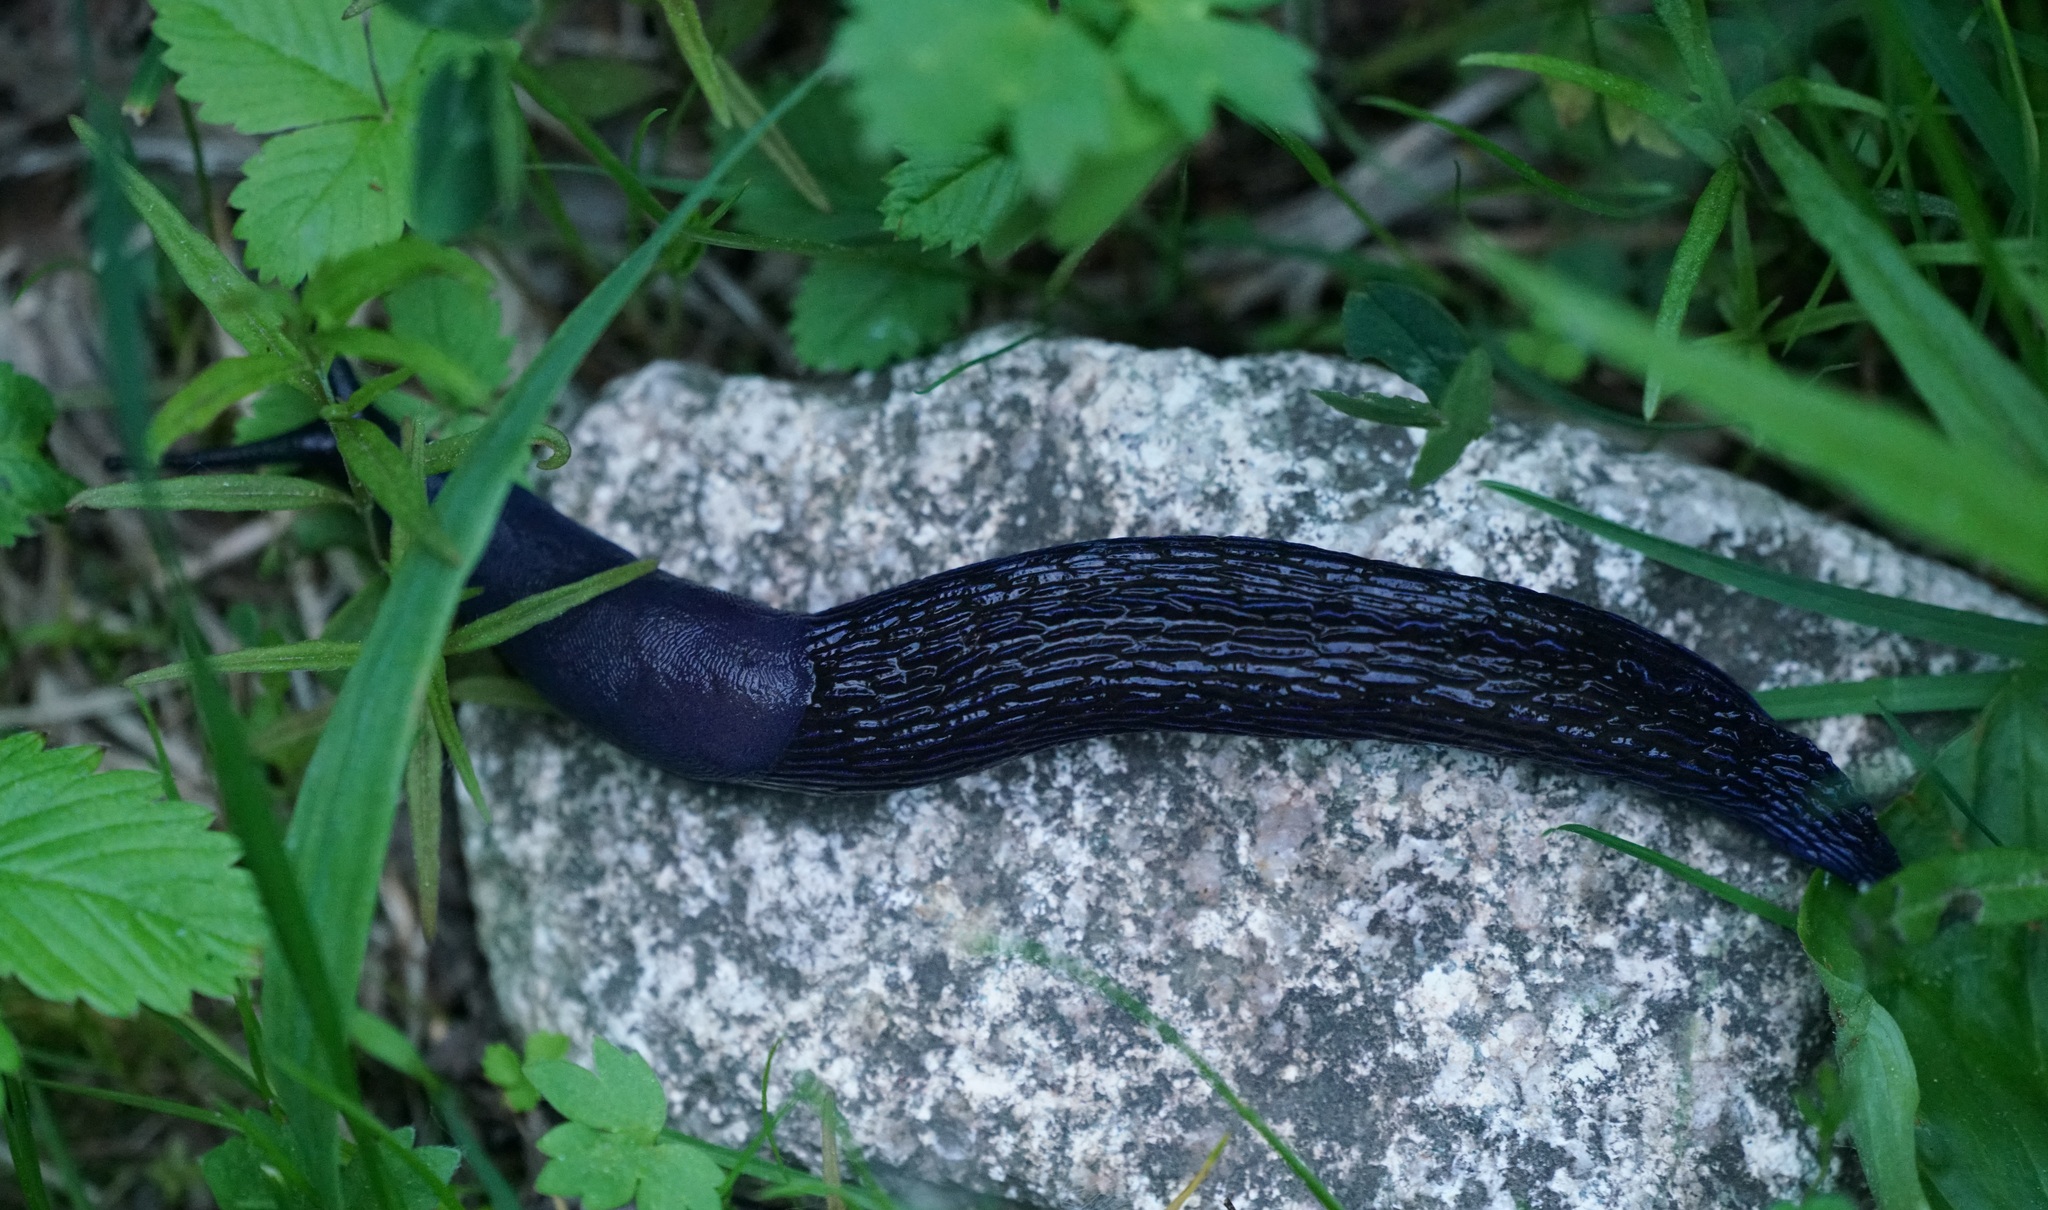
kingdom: Animalia
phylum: Mollusca
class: Gastropoda
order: Stylommatophora
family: Limacidae
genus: Bielzia
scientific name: Bielzia coerulans
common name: Carpathian blue slug
